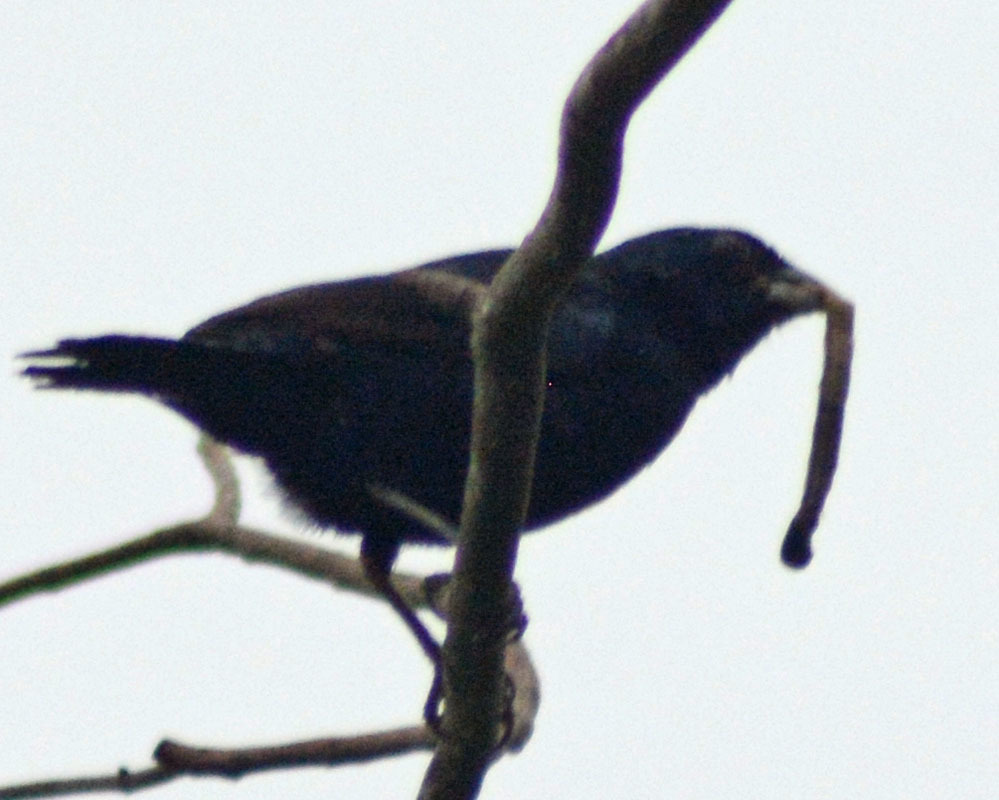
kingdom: Animalia
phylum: Chordata
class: Aves
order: Passeriformes
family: Thraupidae
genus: Volatinia
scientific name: Volatinia jacarina
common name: Blue-black grassquit
